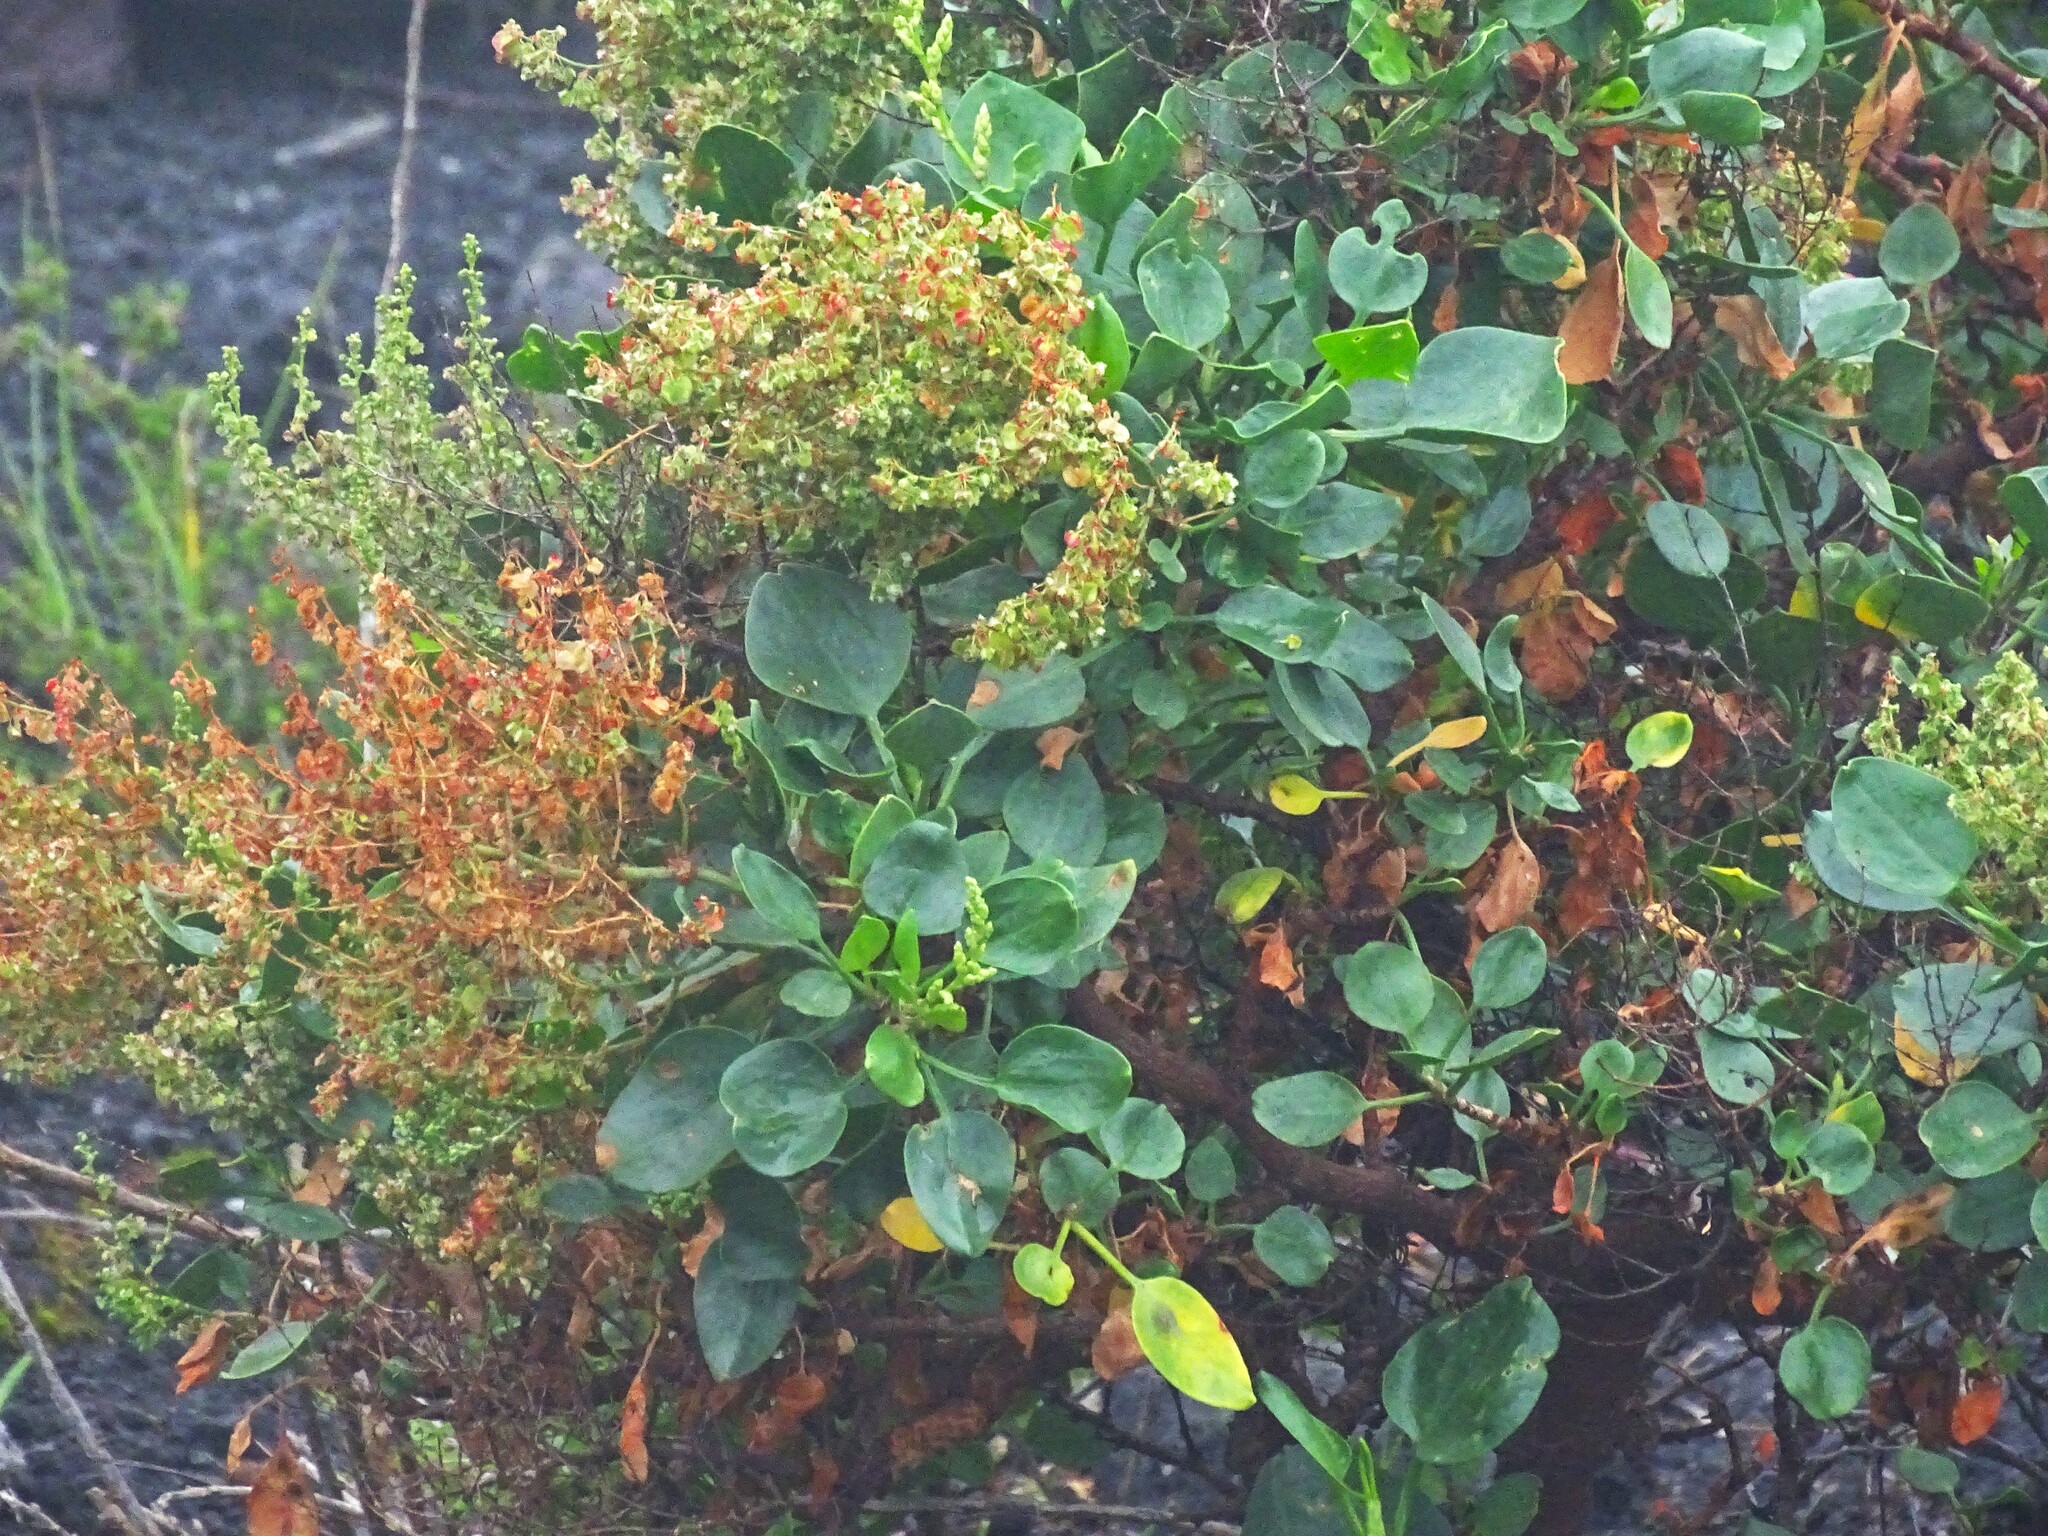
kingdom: Plantae
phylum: Tracheophyta
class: Magnoliopsida
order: Caryophyllales
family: Polygonaceae
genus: Rumex
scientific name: Rumex lunaria
